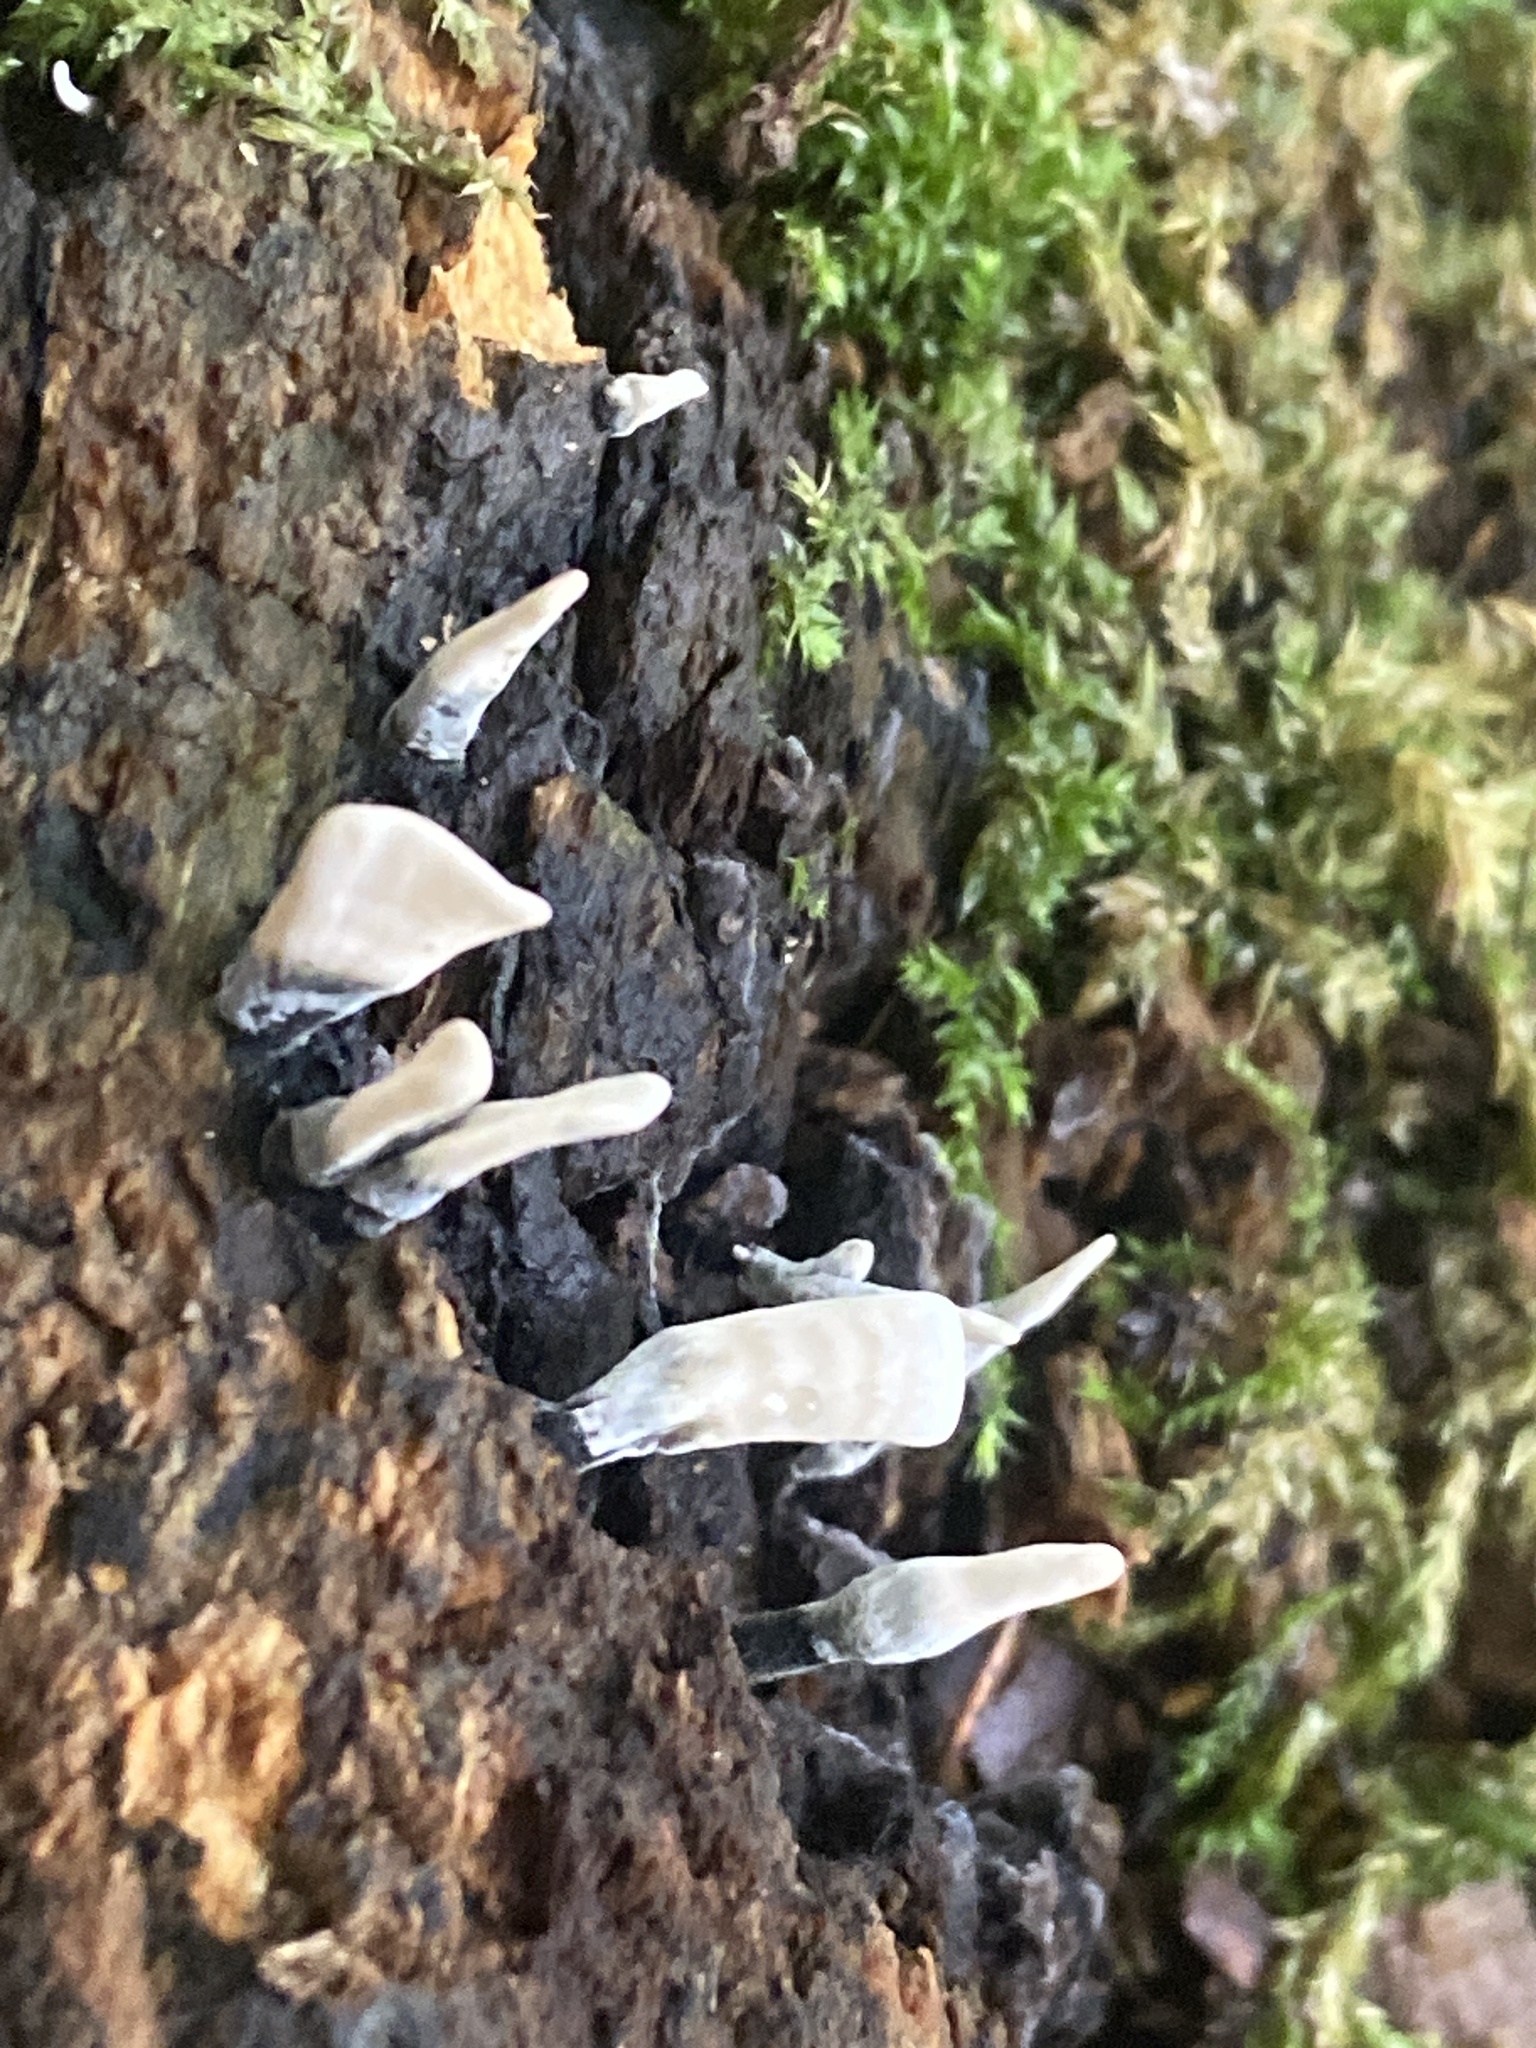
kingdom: Fungi
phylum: Ascomycota
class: Sordariomycetes
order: Xylariales
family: Xylariaceae
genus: Xylaria
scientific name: Xylaria hypoxylon
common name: Candle-snuff fungus
